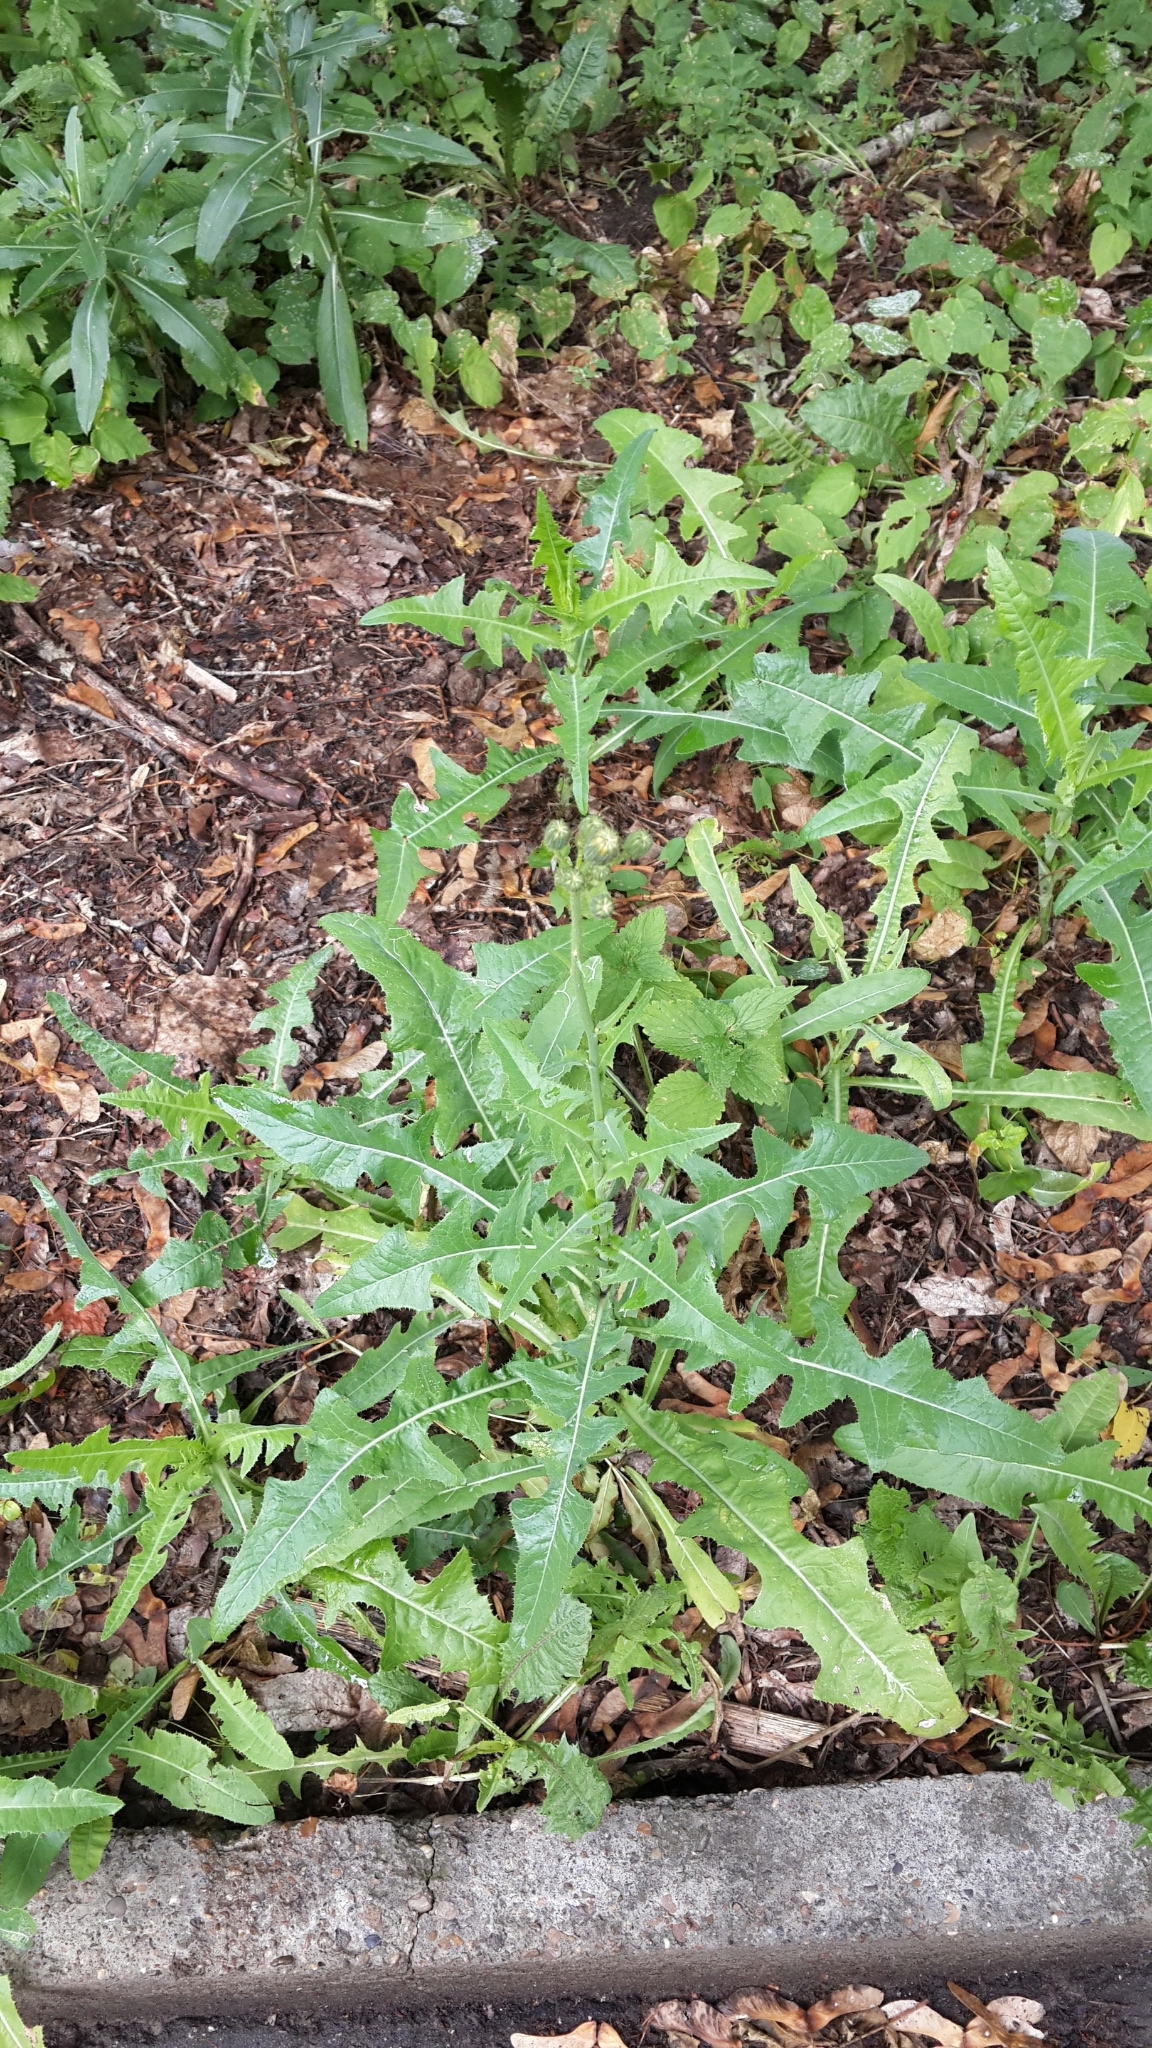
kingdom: Plantae
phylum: Tracheophyta
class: Magnoliopsida
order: Asterales
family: Asteraceae
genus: Sonchus
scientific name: Sonchus arvensis
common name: Perennial sow-thistle
